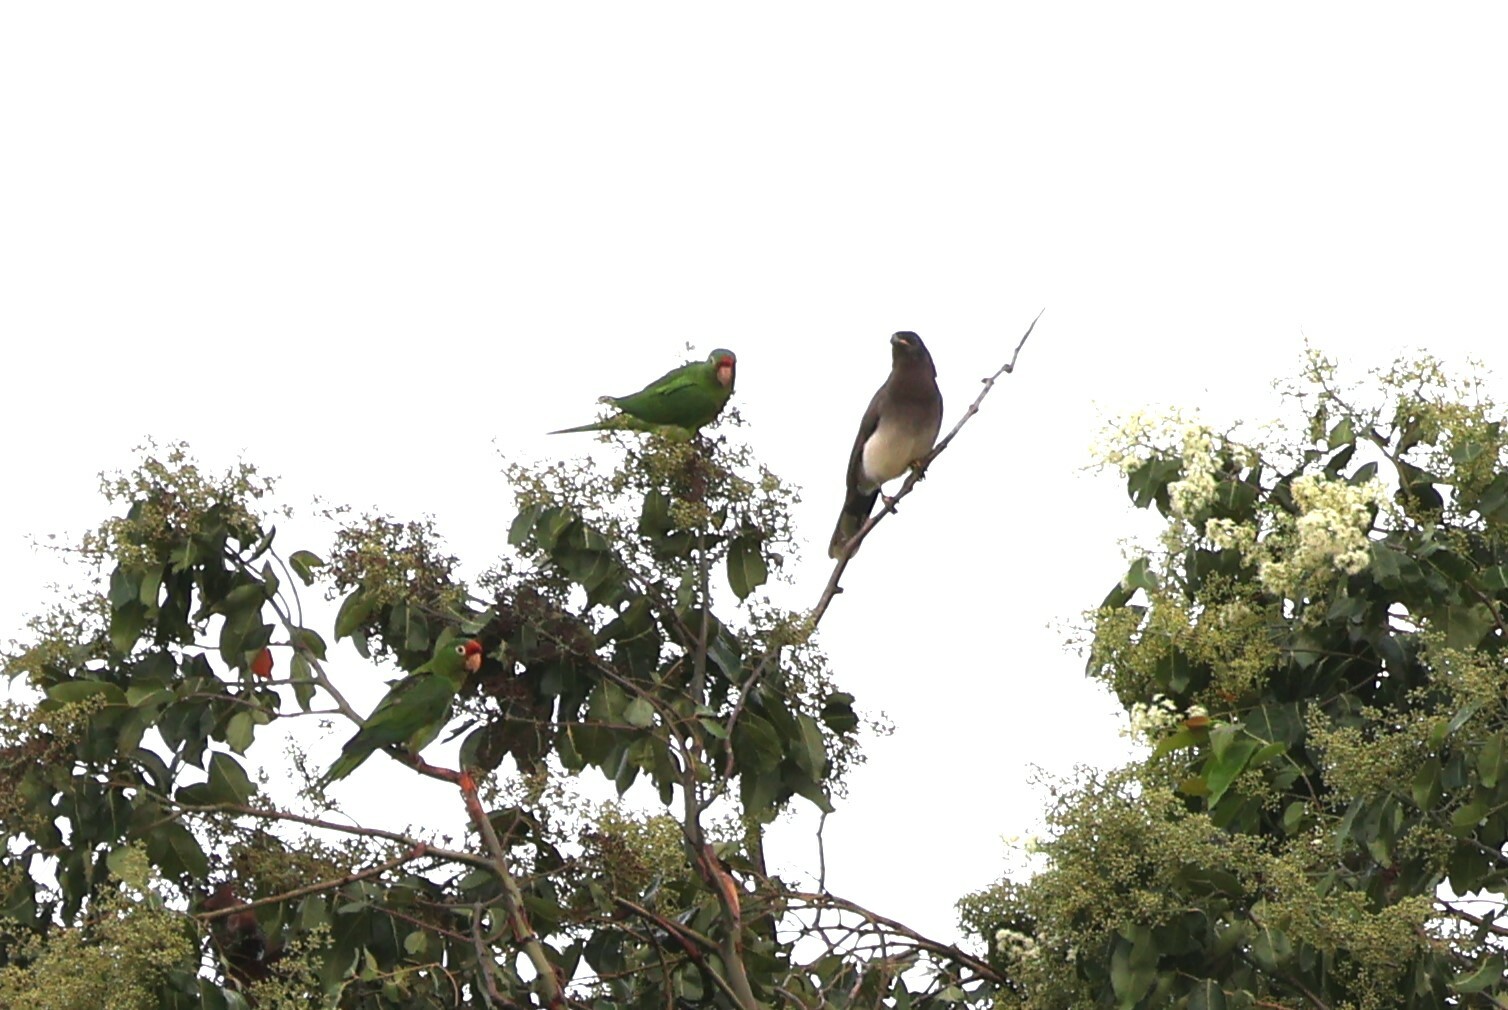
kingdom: Animalia
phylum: Chordata
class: Aves
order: Passeriformes
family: Corvidae
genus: Psilorhinus
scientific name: Psilorhinus morio
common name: Brown jay
